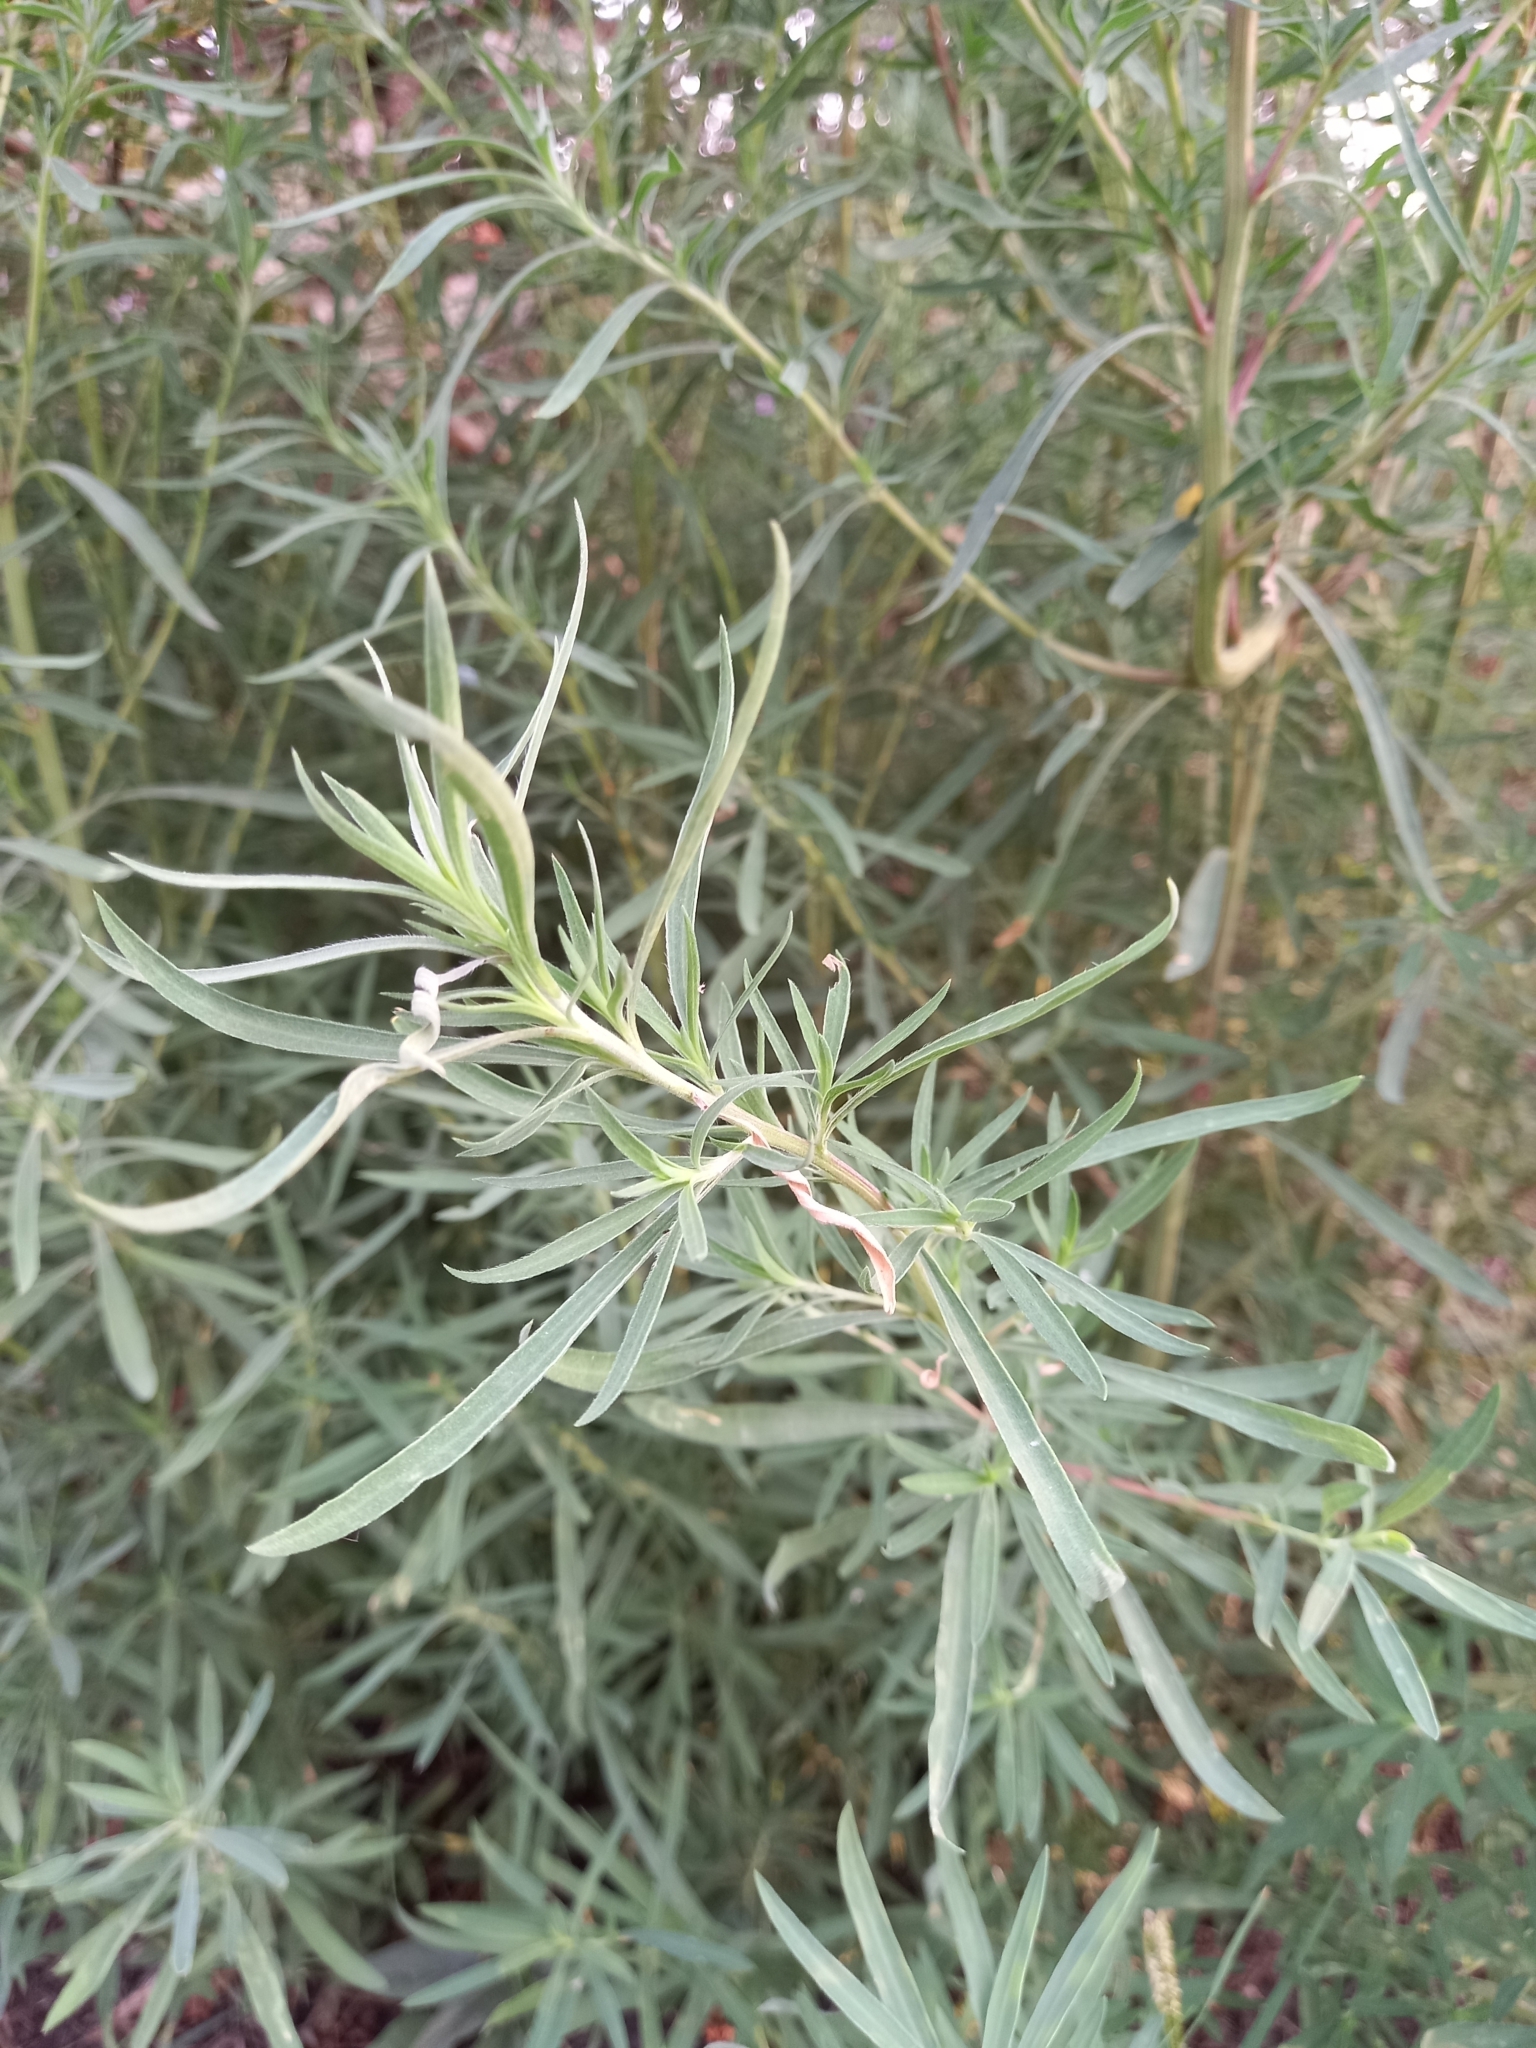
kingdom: Plantae
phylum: Tracheophyta
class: Magnoliopsida
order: Caryophyllales
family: Amaranthaceae
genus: Bassia
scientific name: Bassia scoparia
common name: Belvedere
